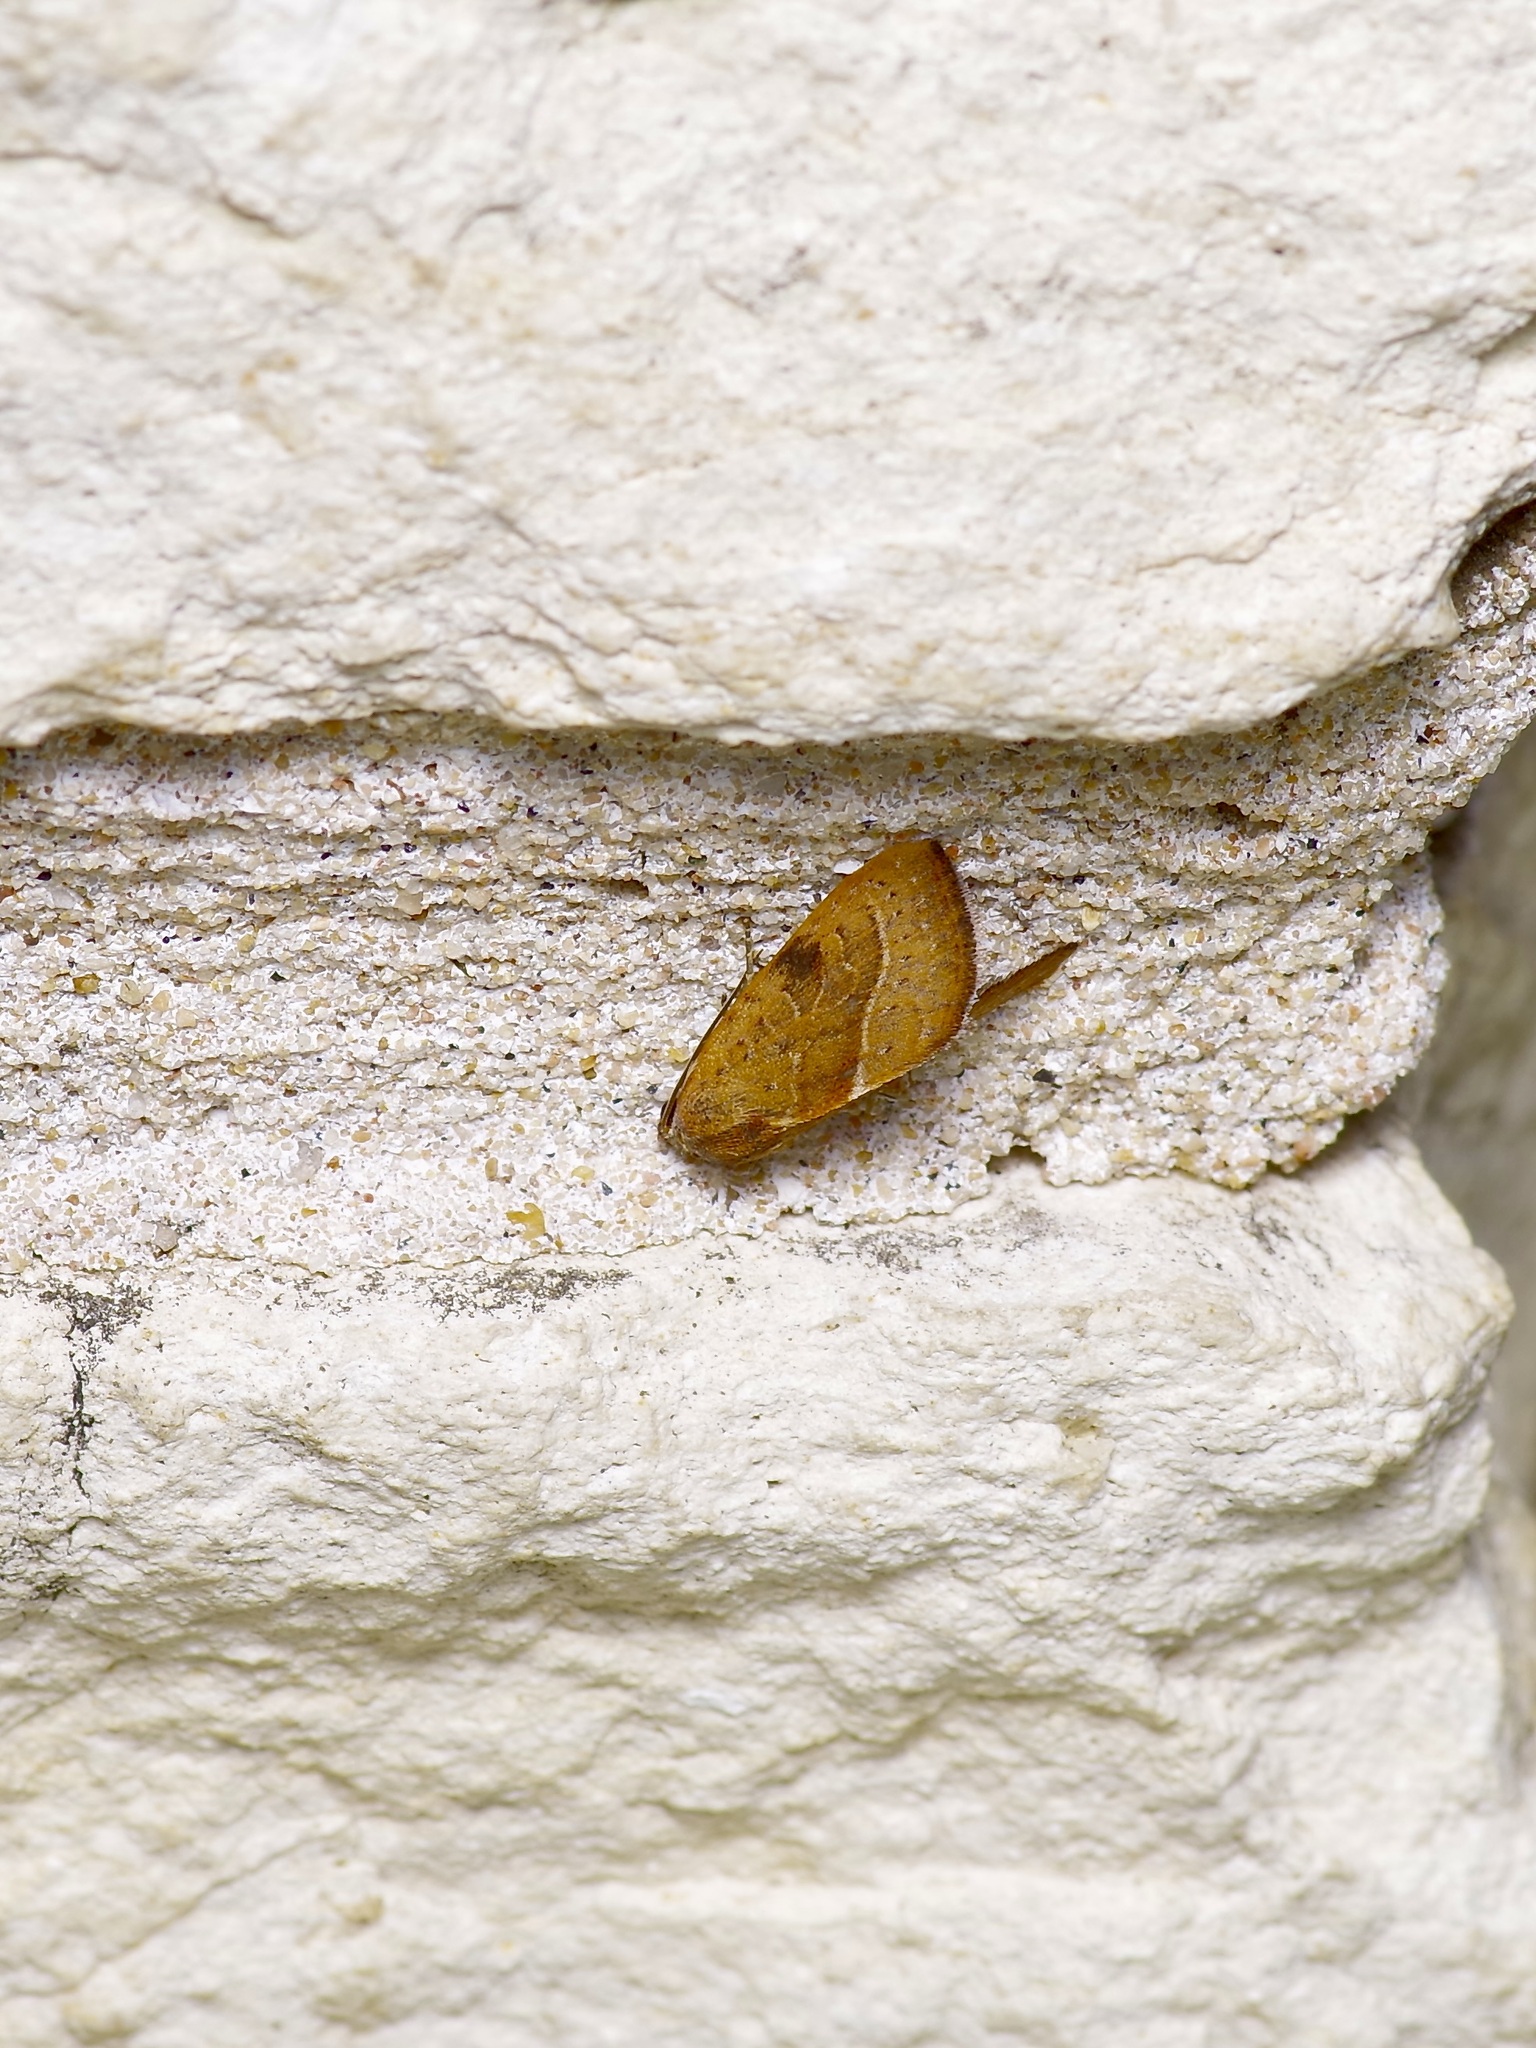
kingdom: Animalia
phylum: Arthropoda
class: Insecta
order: Lepidoptera
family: Noctuidae
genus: Galgula
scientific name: Galgula partita
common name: Wedgeling
